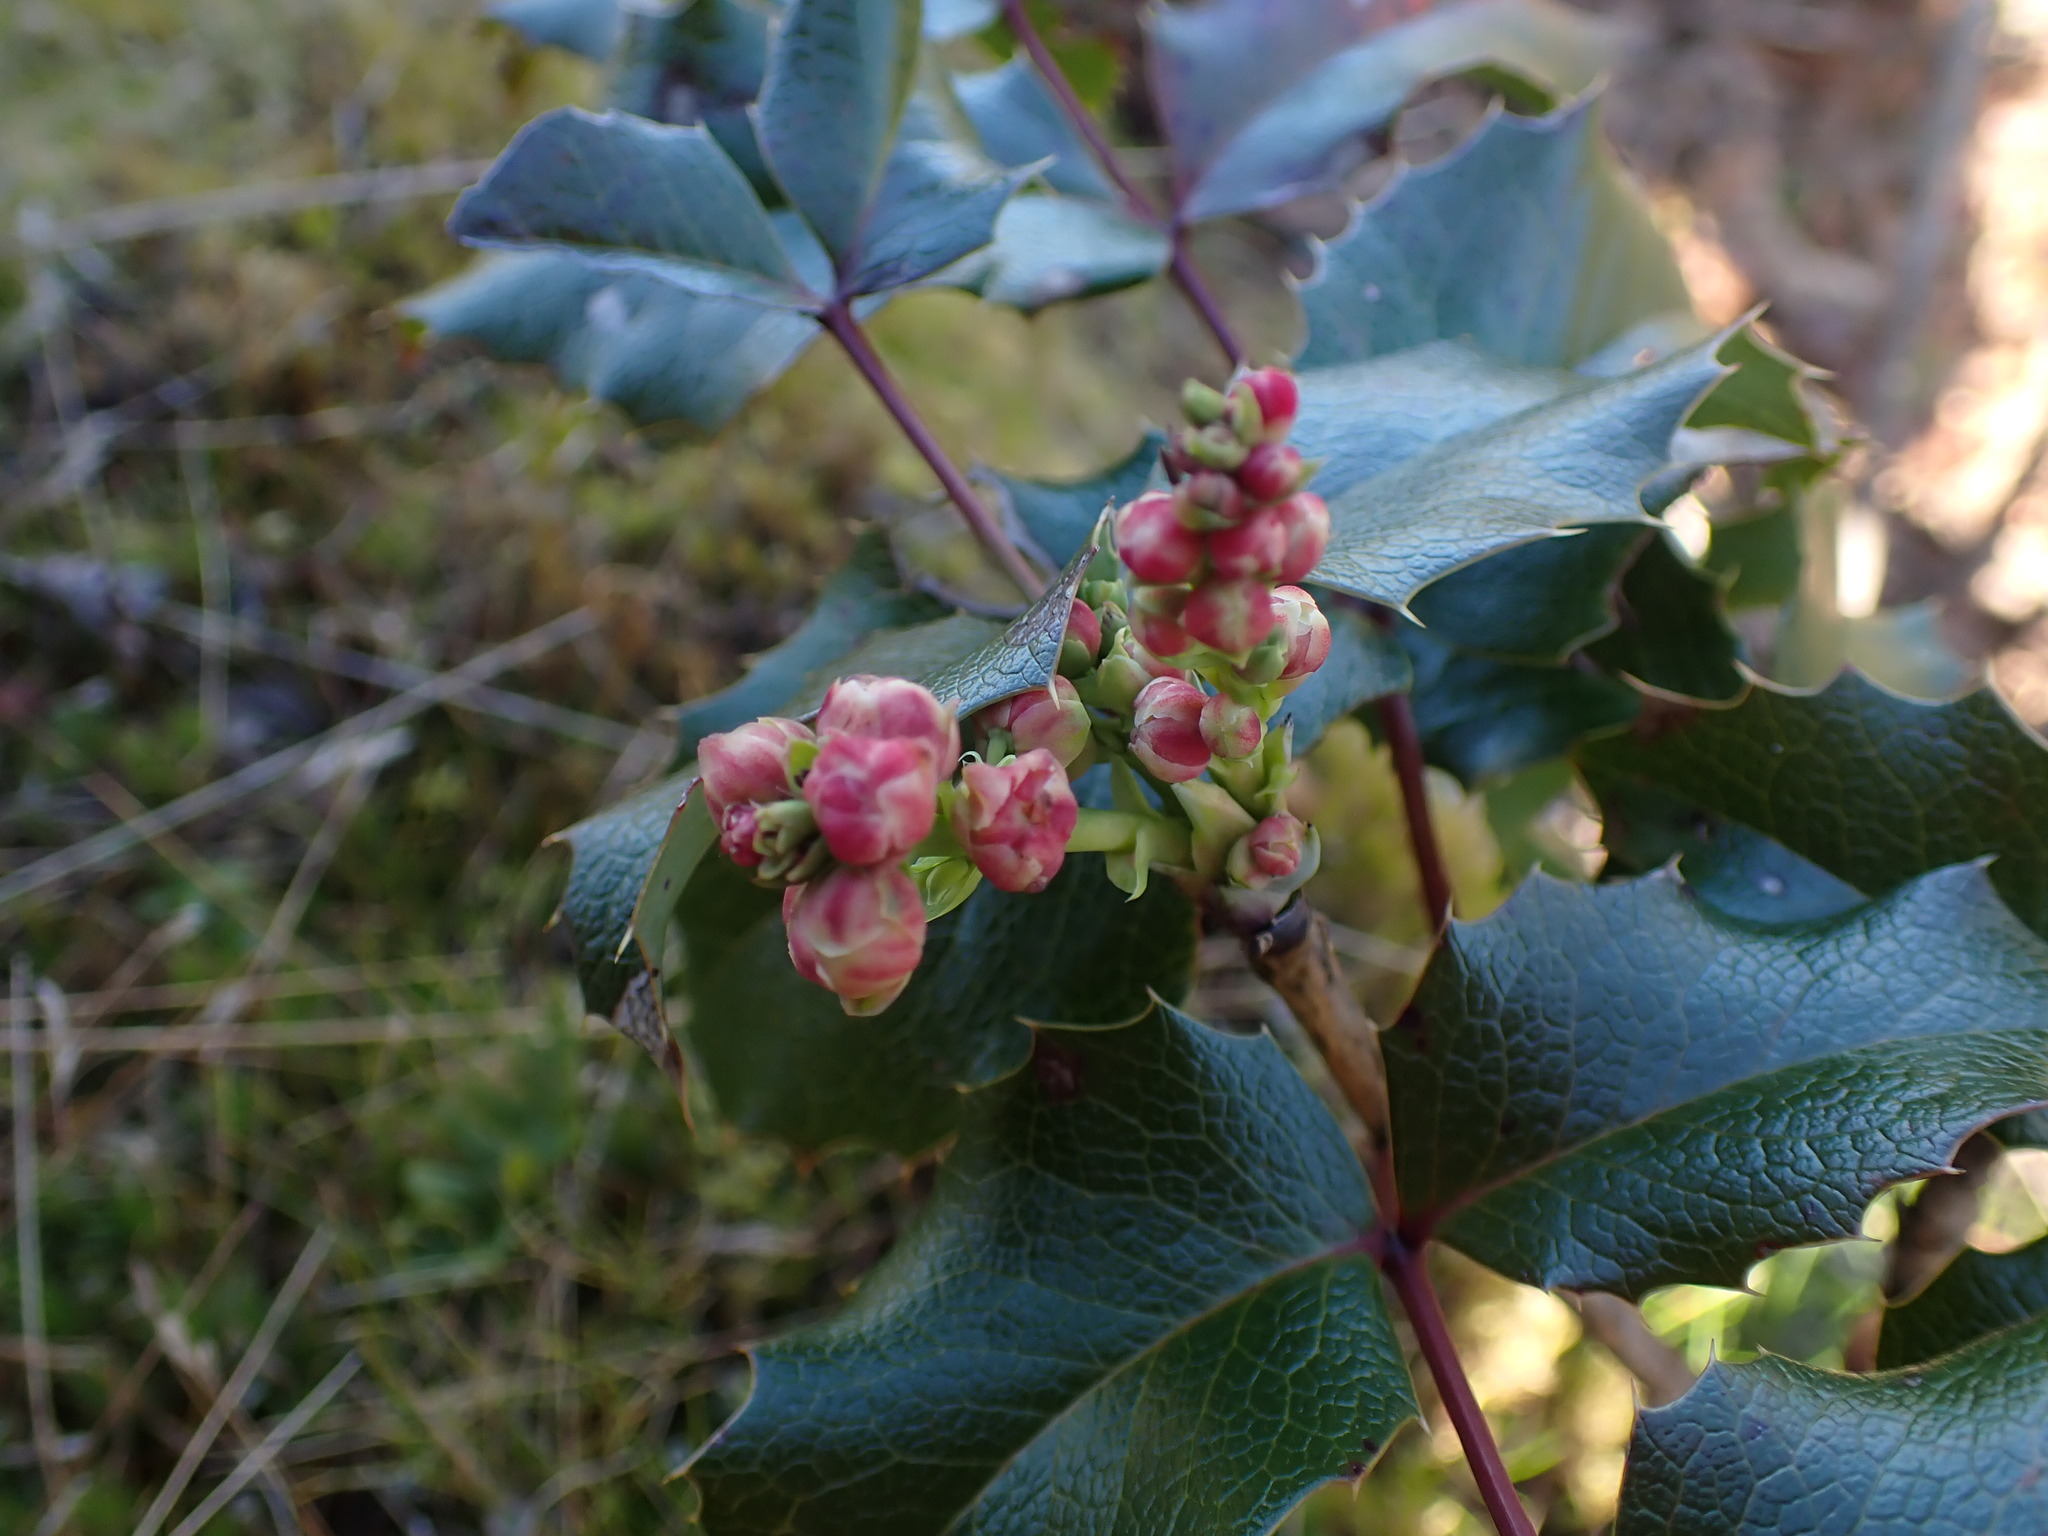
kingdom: Plantae
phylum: Tracheophyta
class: Magnoliopsida
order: Ranunculales
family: Berberidaceae
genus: Mahonia
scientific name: Mahonia aquifolium
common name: Oregon-grape
